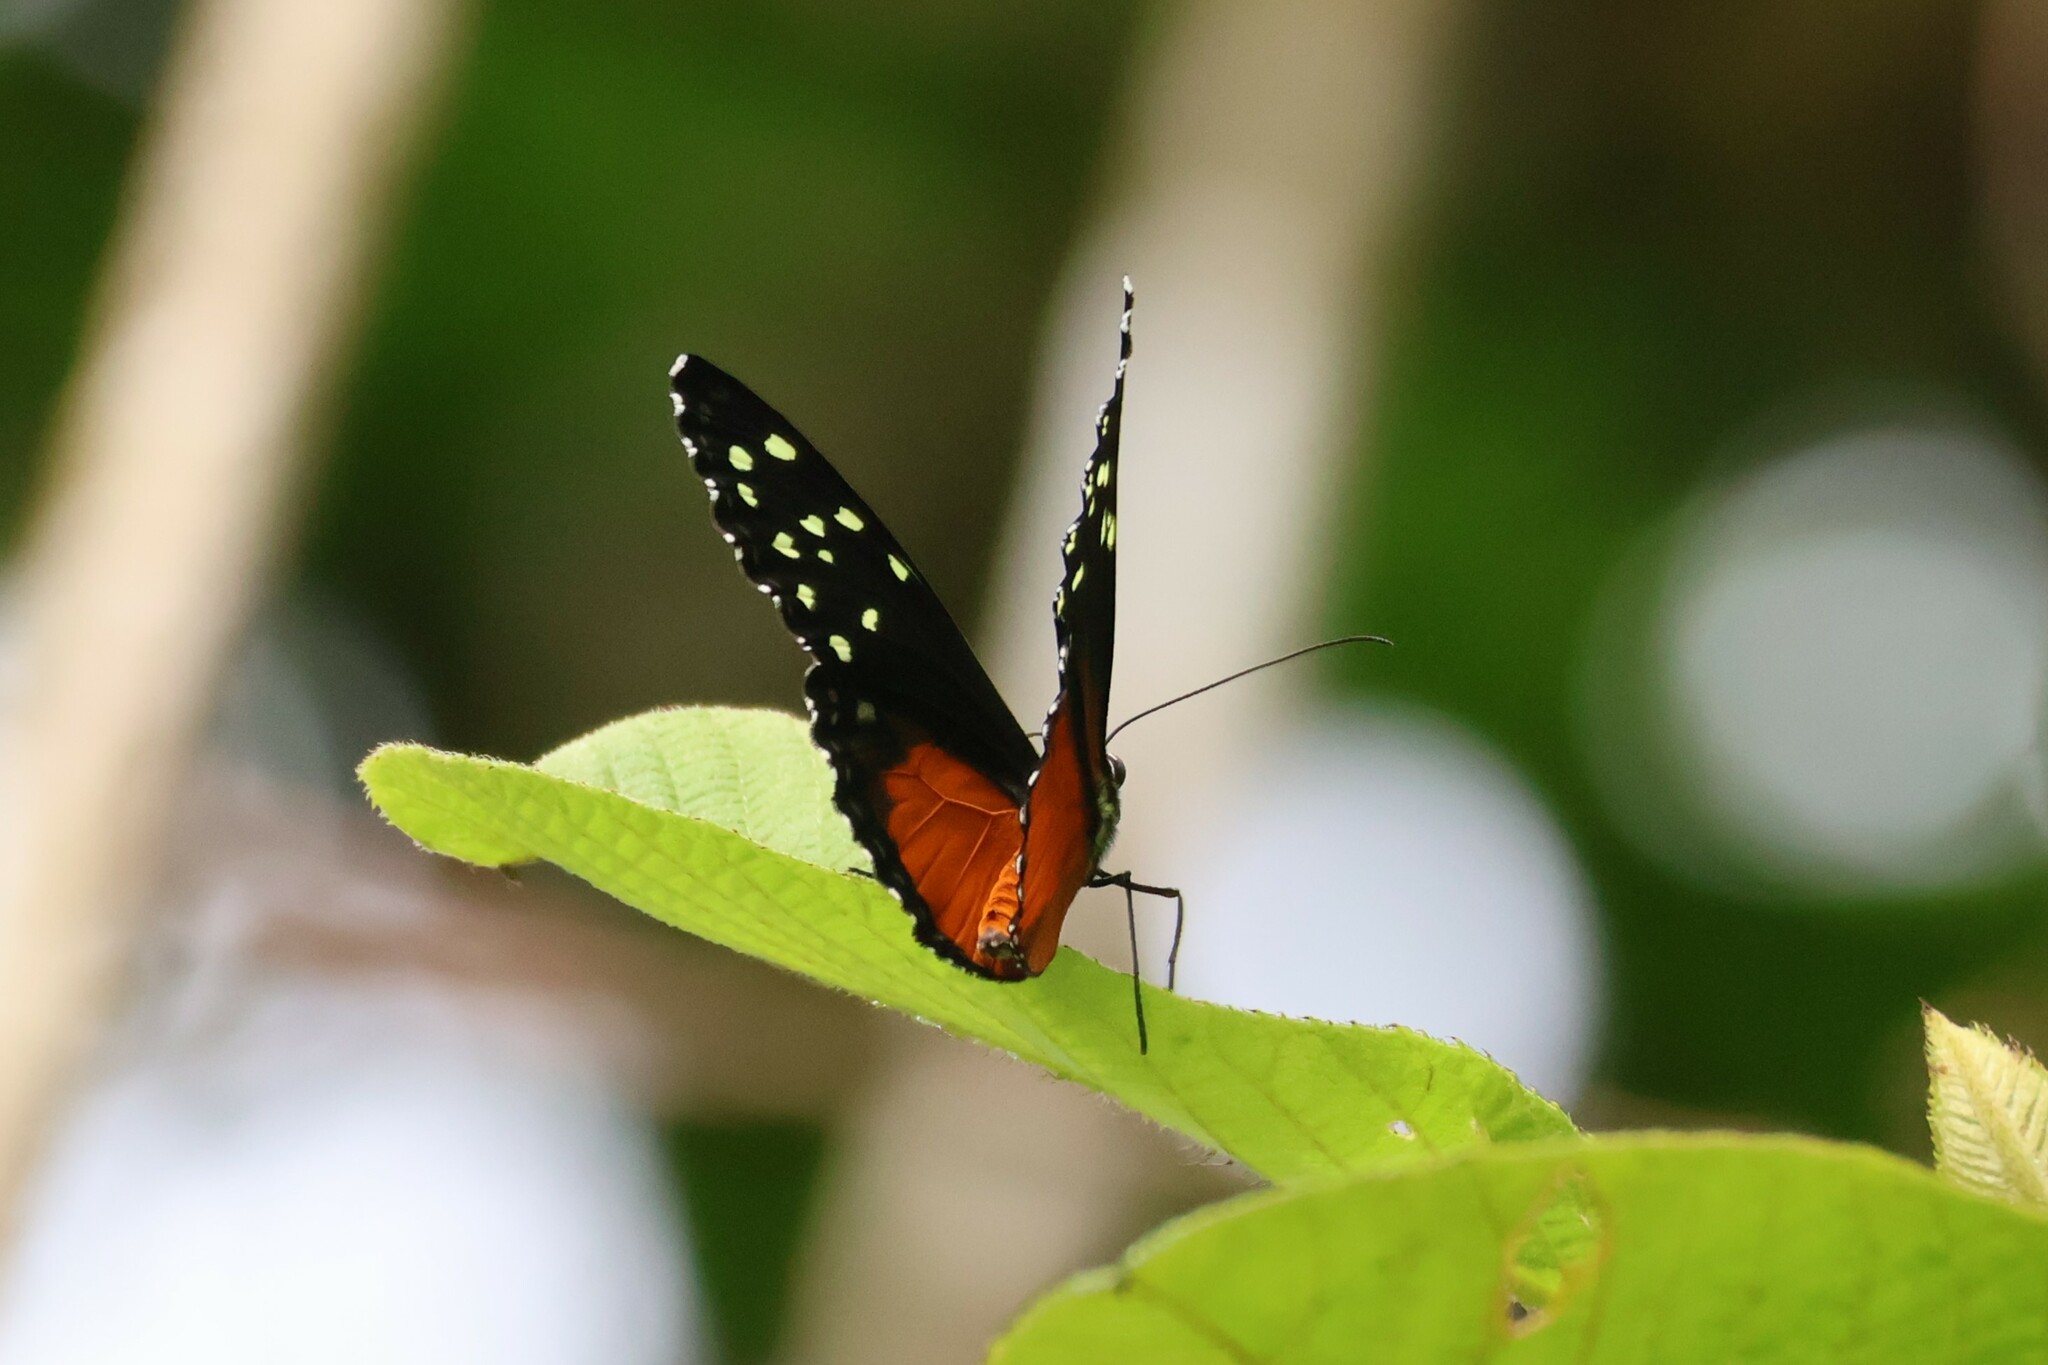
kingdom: Animalia
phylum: Arthropoda
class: Insecta
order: Lepidoptera
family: Nymphalidae
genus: Tithorea
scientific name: Tithorea tarricina
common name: Cream-spotted tigerwing
